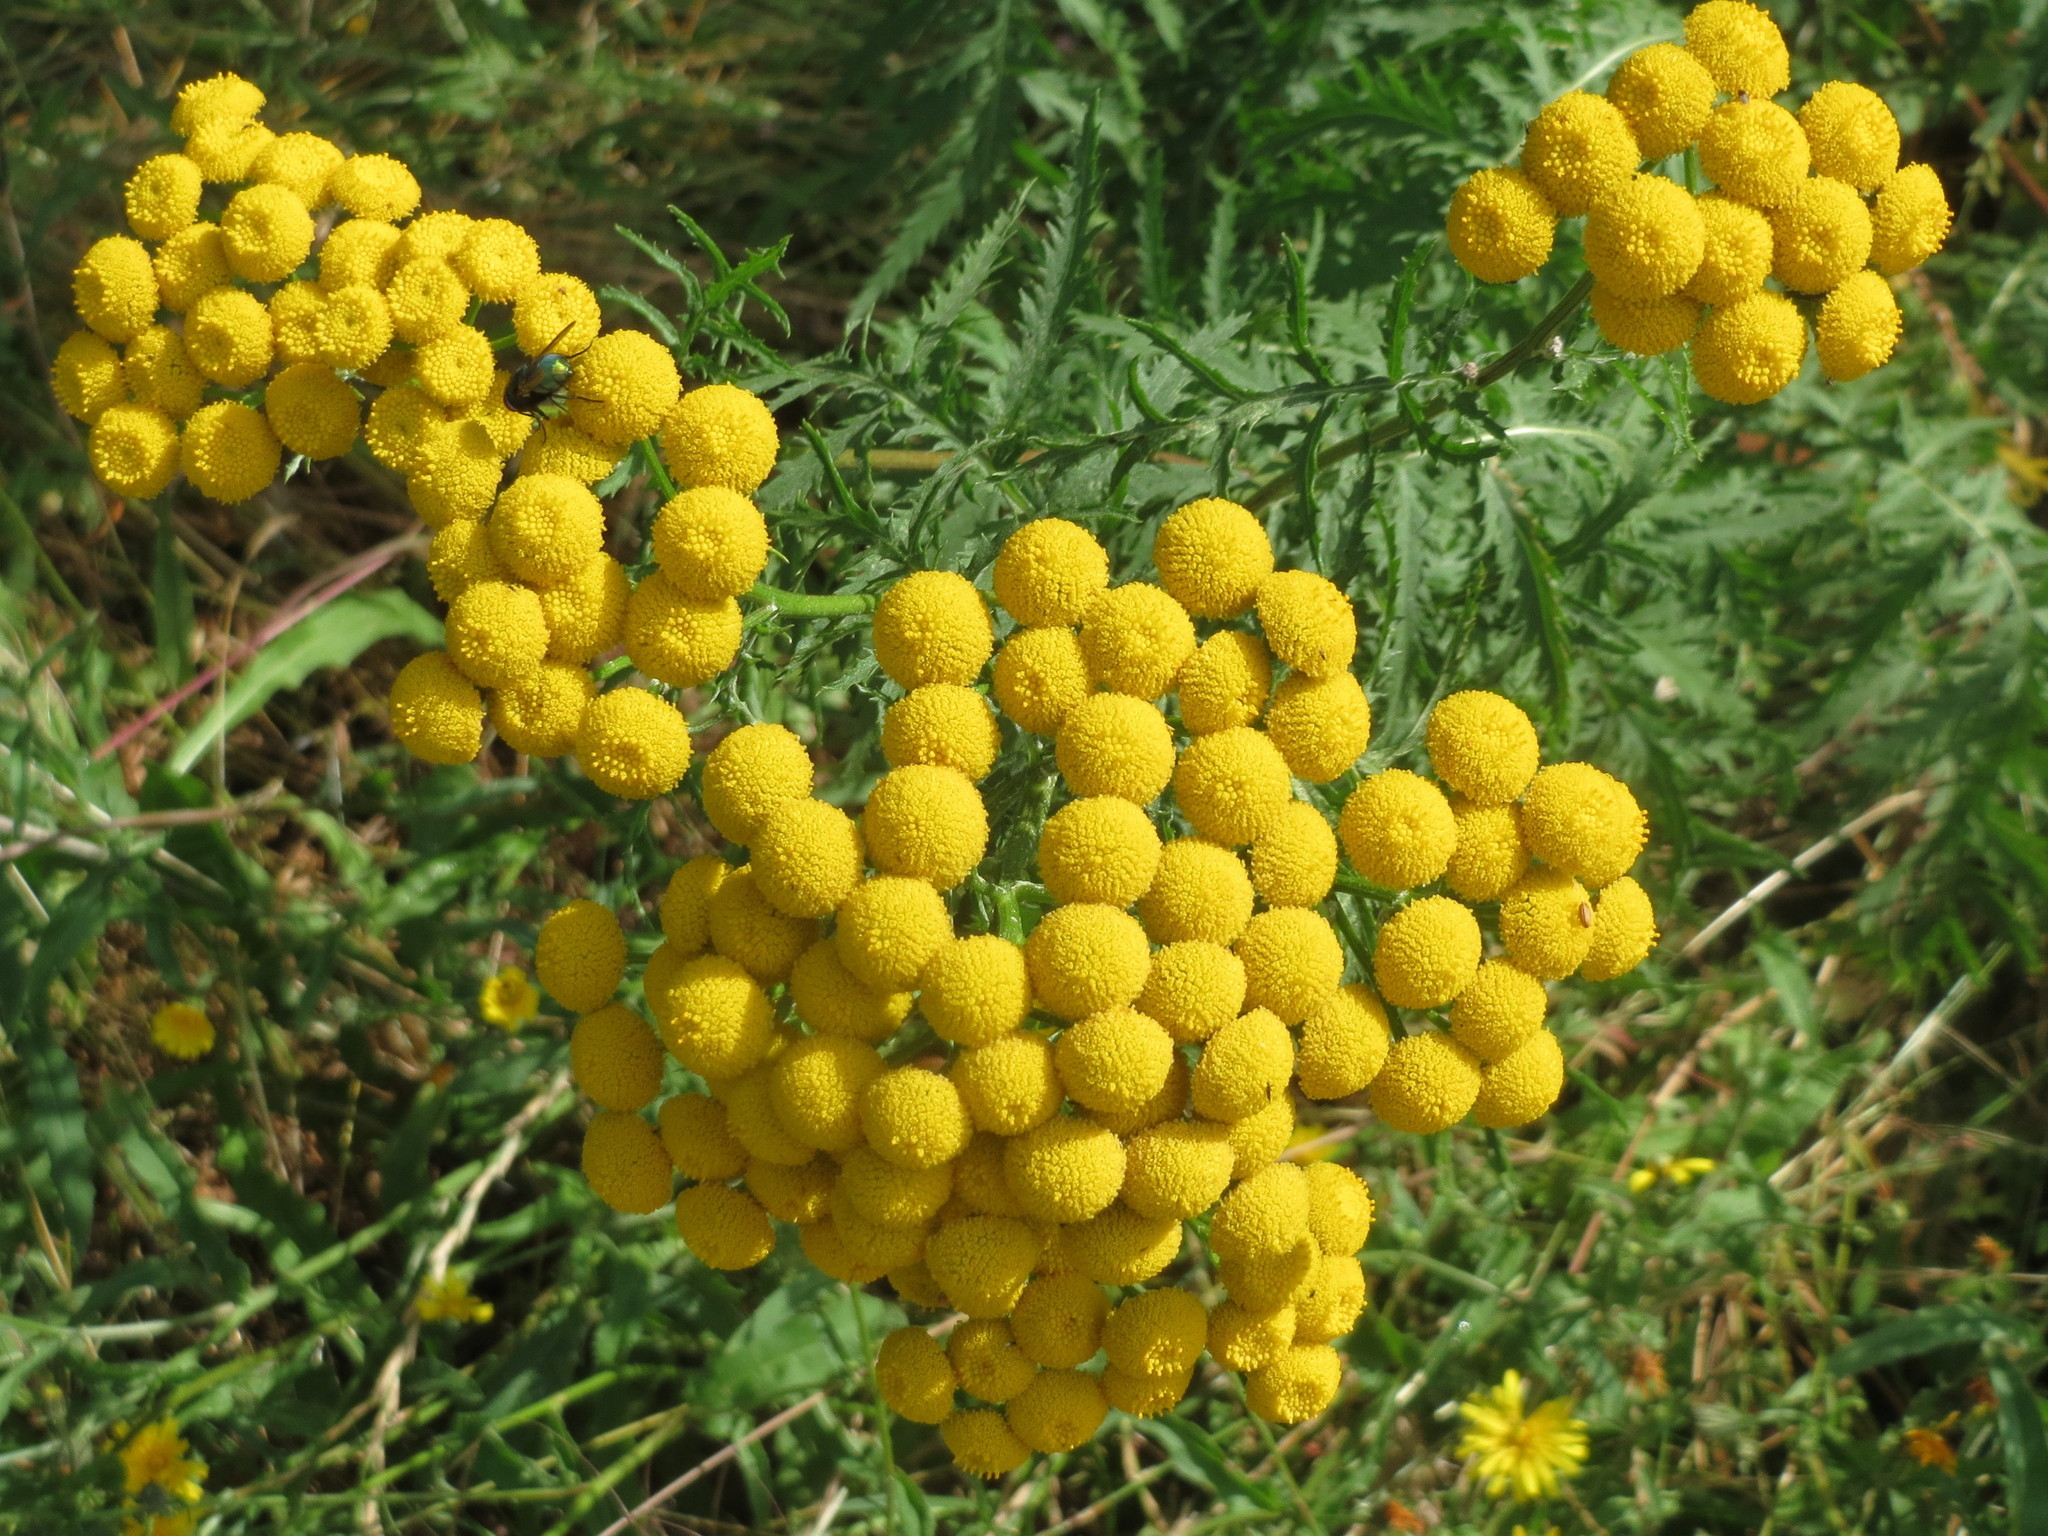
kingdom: Plantae
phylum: Tracheophyta
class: Magnoliopsida
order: Asterales
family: Asteraceae
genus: Tanacetum
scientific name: Tanacetum vulgare
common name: Common tansy
